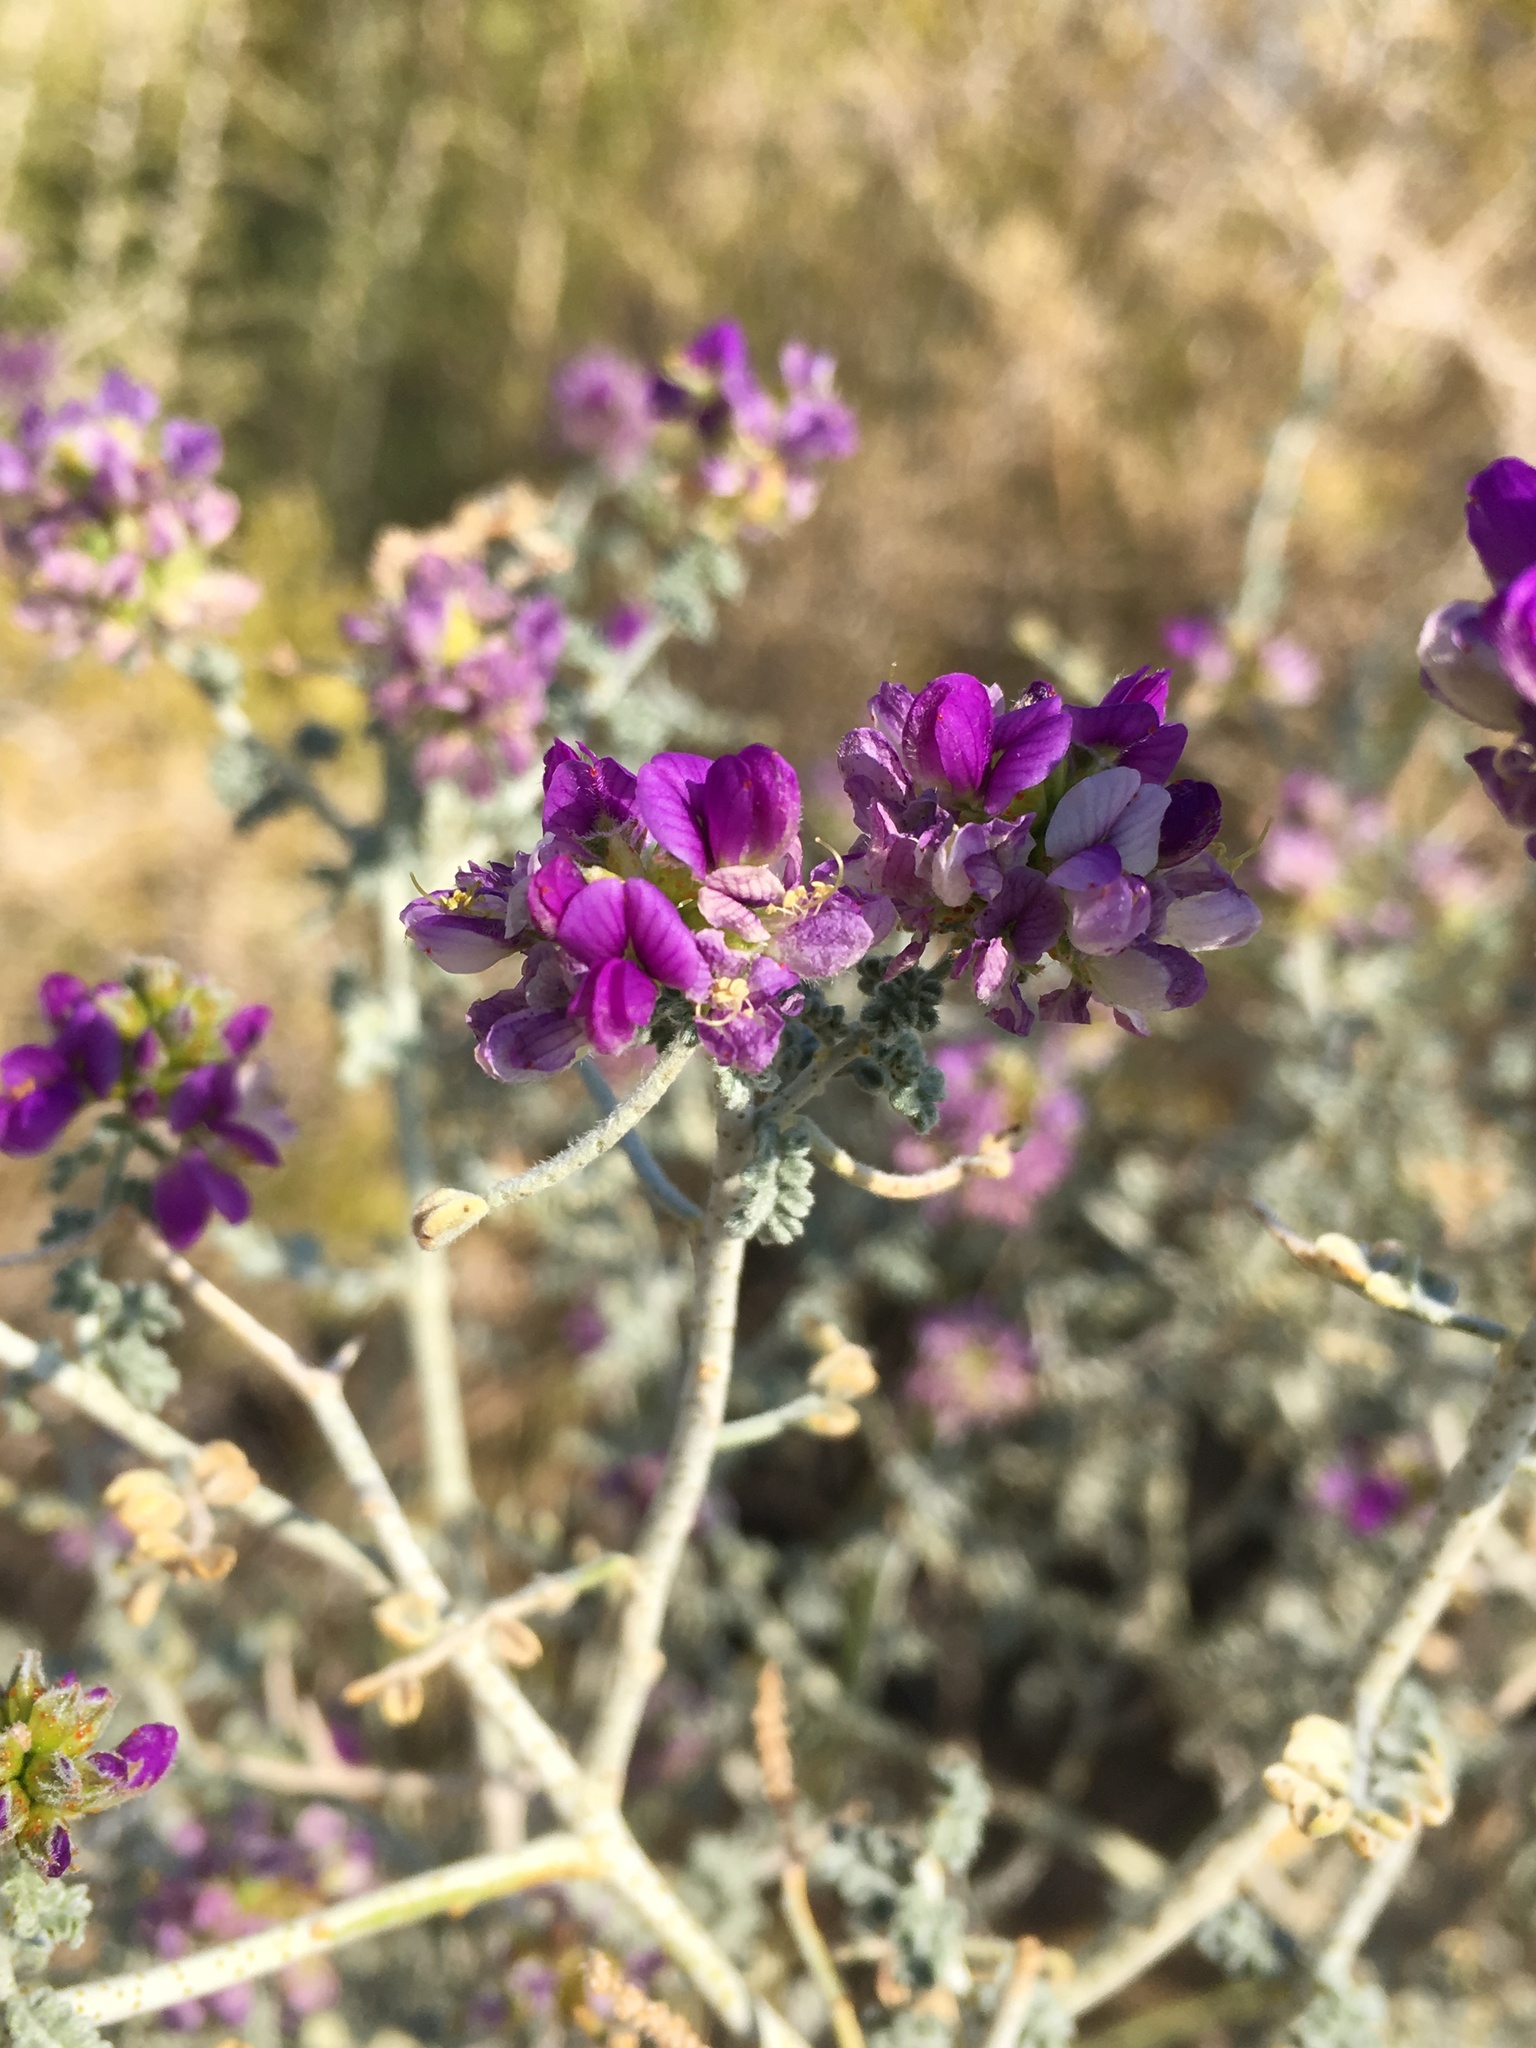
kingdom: Plantae
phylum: Tracheophyta
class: Magnoliopsida
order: Fabales
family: Fabaceae
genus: Psorothamnus
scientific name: Psorothamnus polydenius
